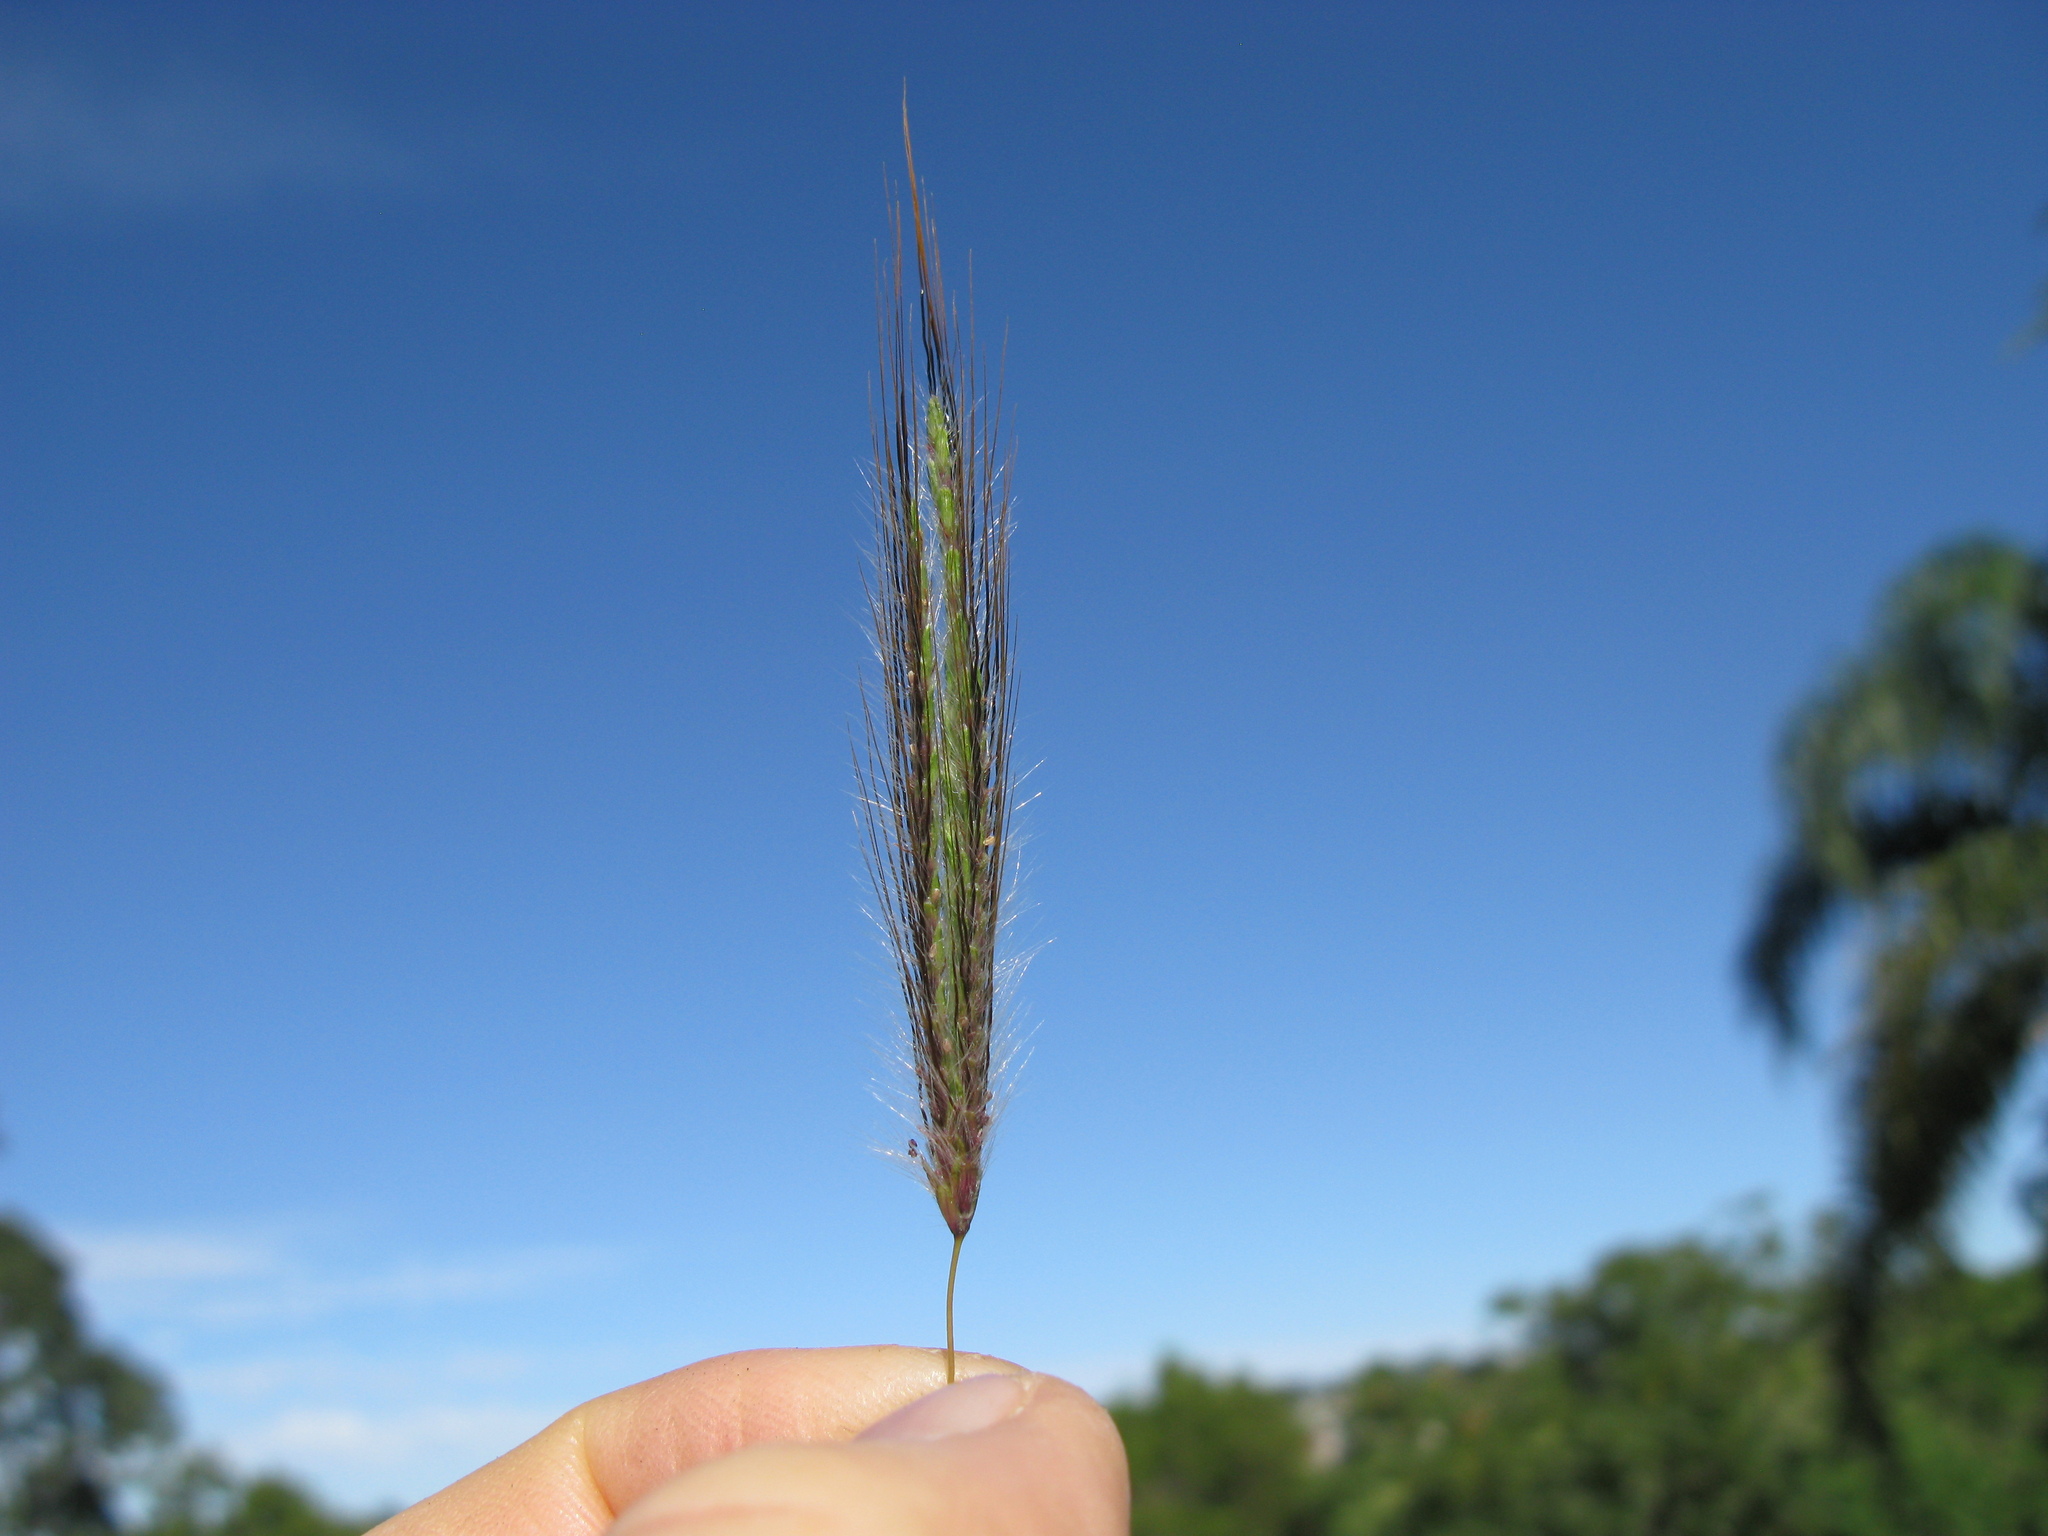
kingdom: Plantae
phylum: Tracheophyta
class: Liliopsida
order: Poales
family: Poaceae
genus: Dichanthium
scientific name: Dichanthium sericeum
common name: Silky bluestem
